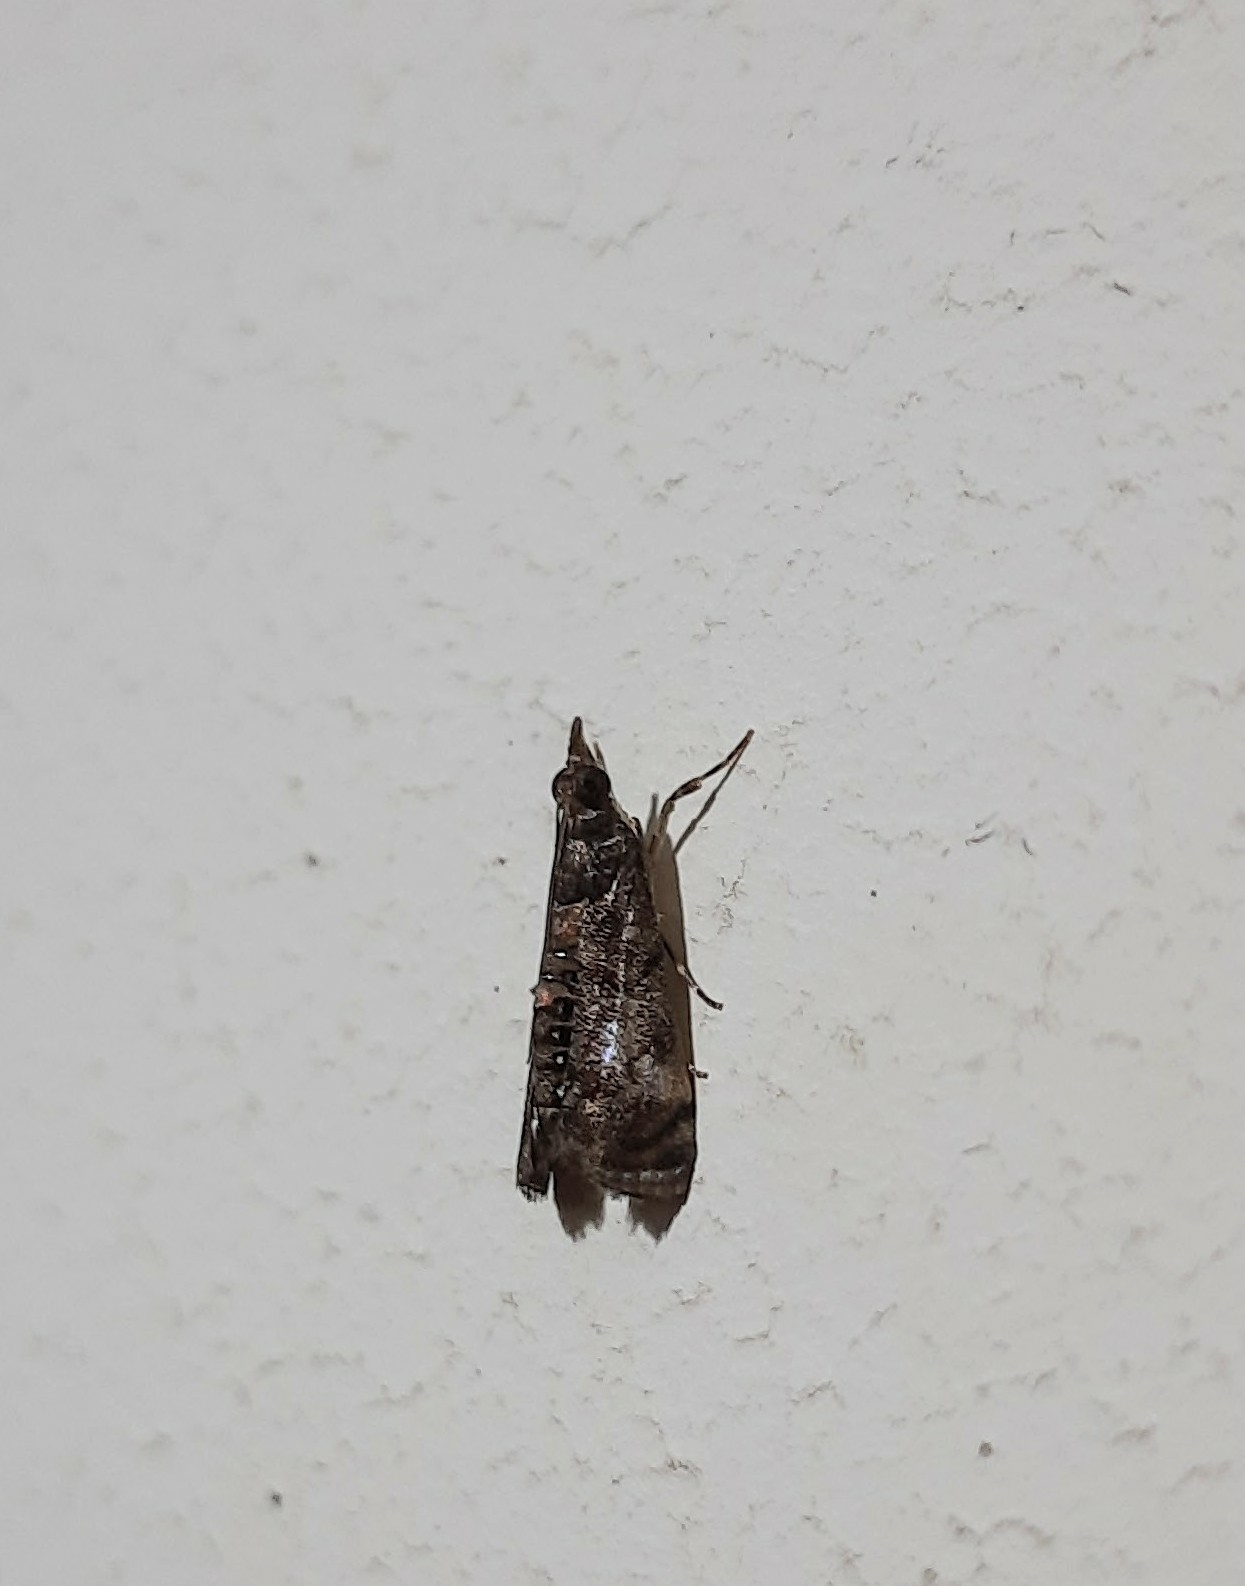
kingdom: Animalia
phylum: Arthropoda
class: Insecta
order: Lepidoptera
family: Crambidae
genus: Noorda
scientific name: Noorda blitealis
